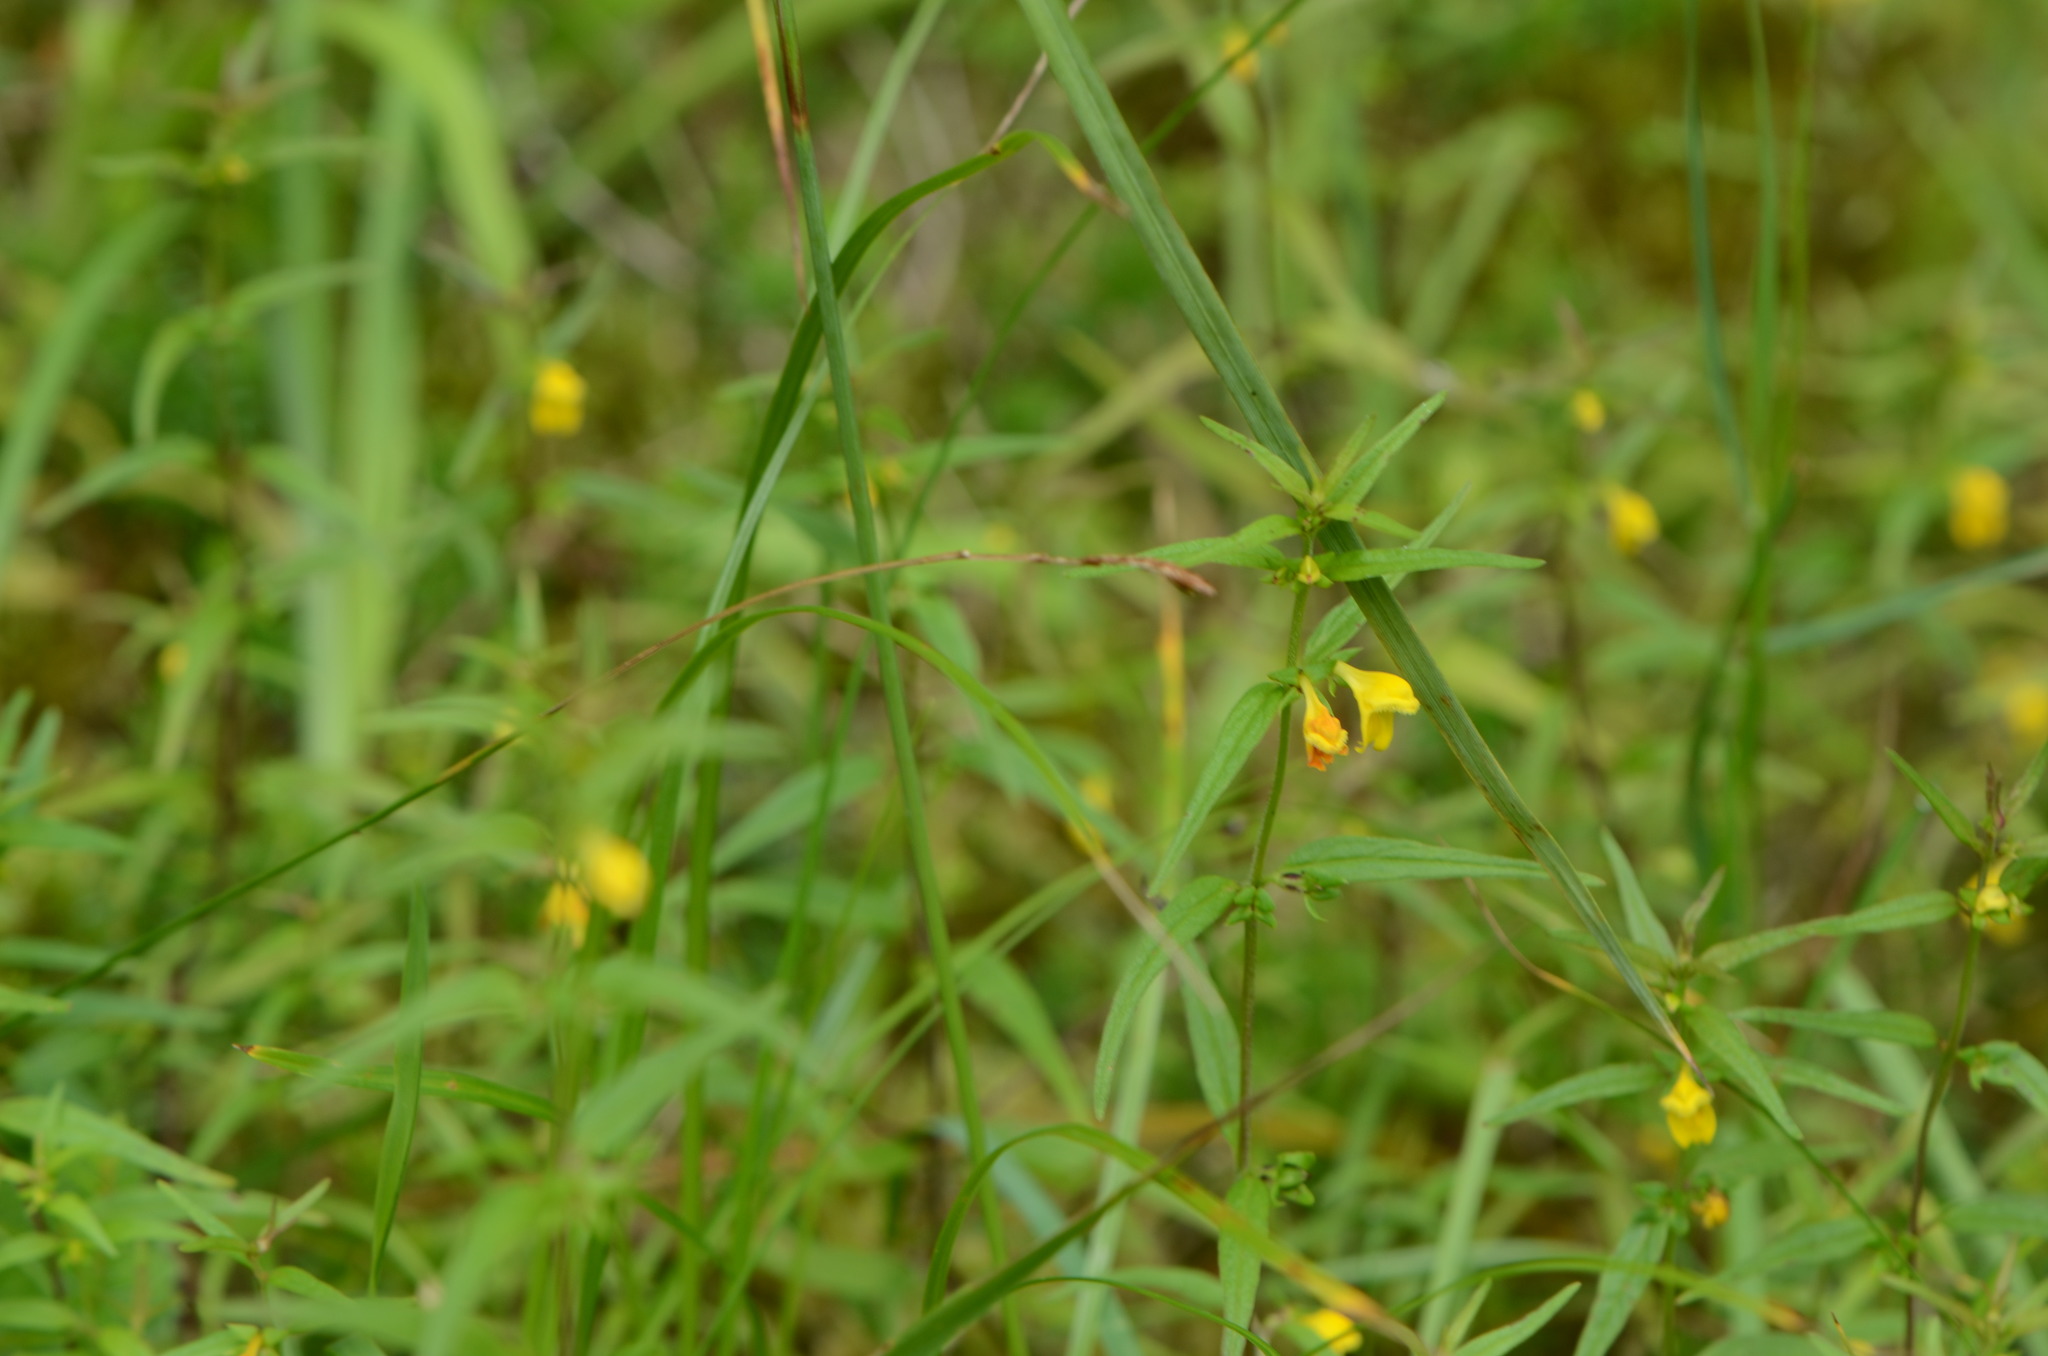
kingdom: Plantae
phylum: Tracheophyta
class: Magnoliopsida
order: Lamiales
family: Orobanchaceae
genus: Melampyrum
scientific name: Melampyrum sylvaticum
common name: Small cow-wheat
